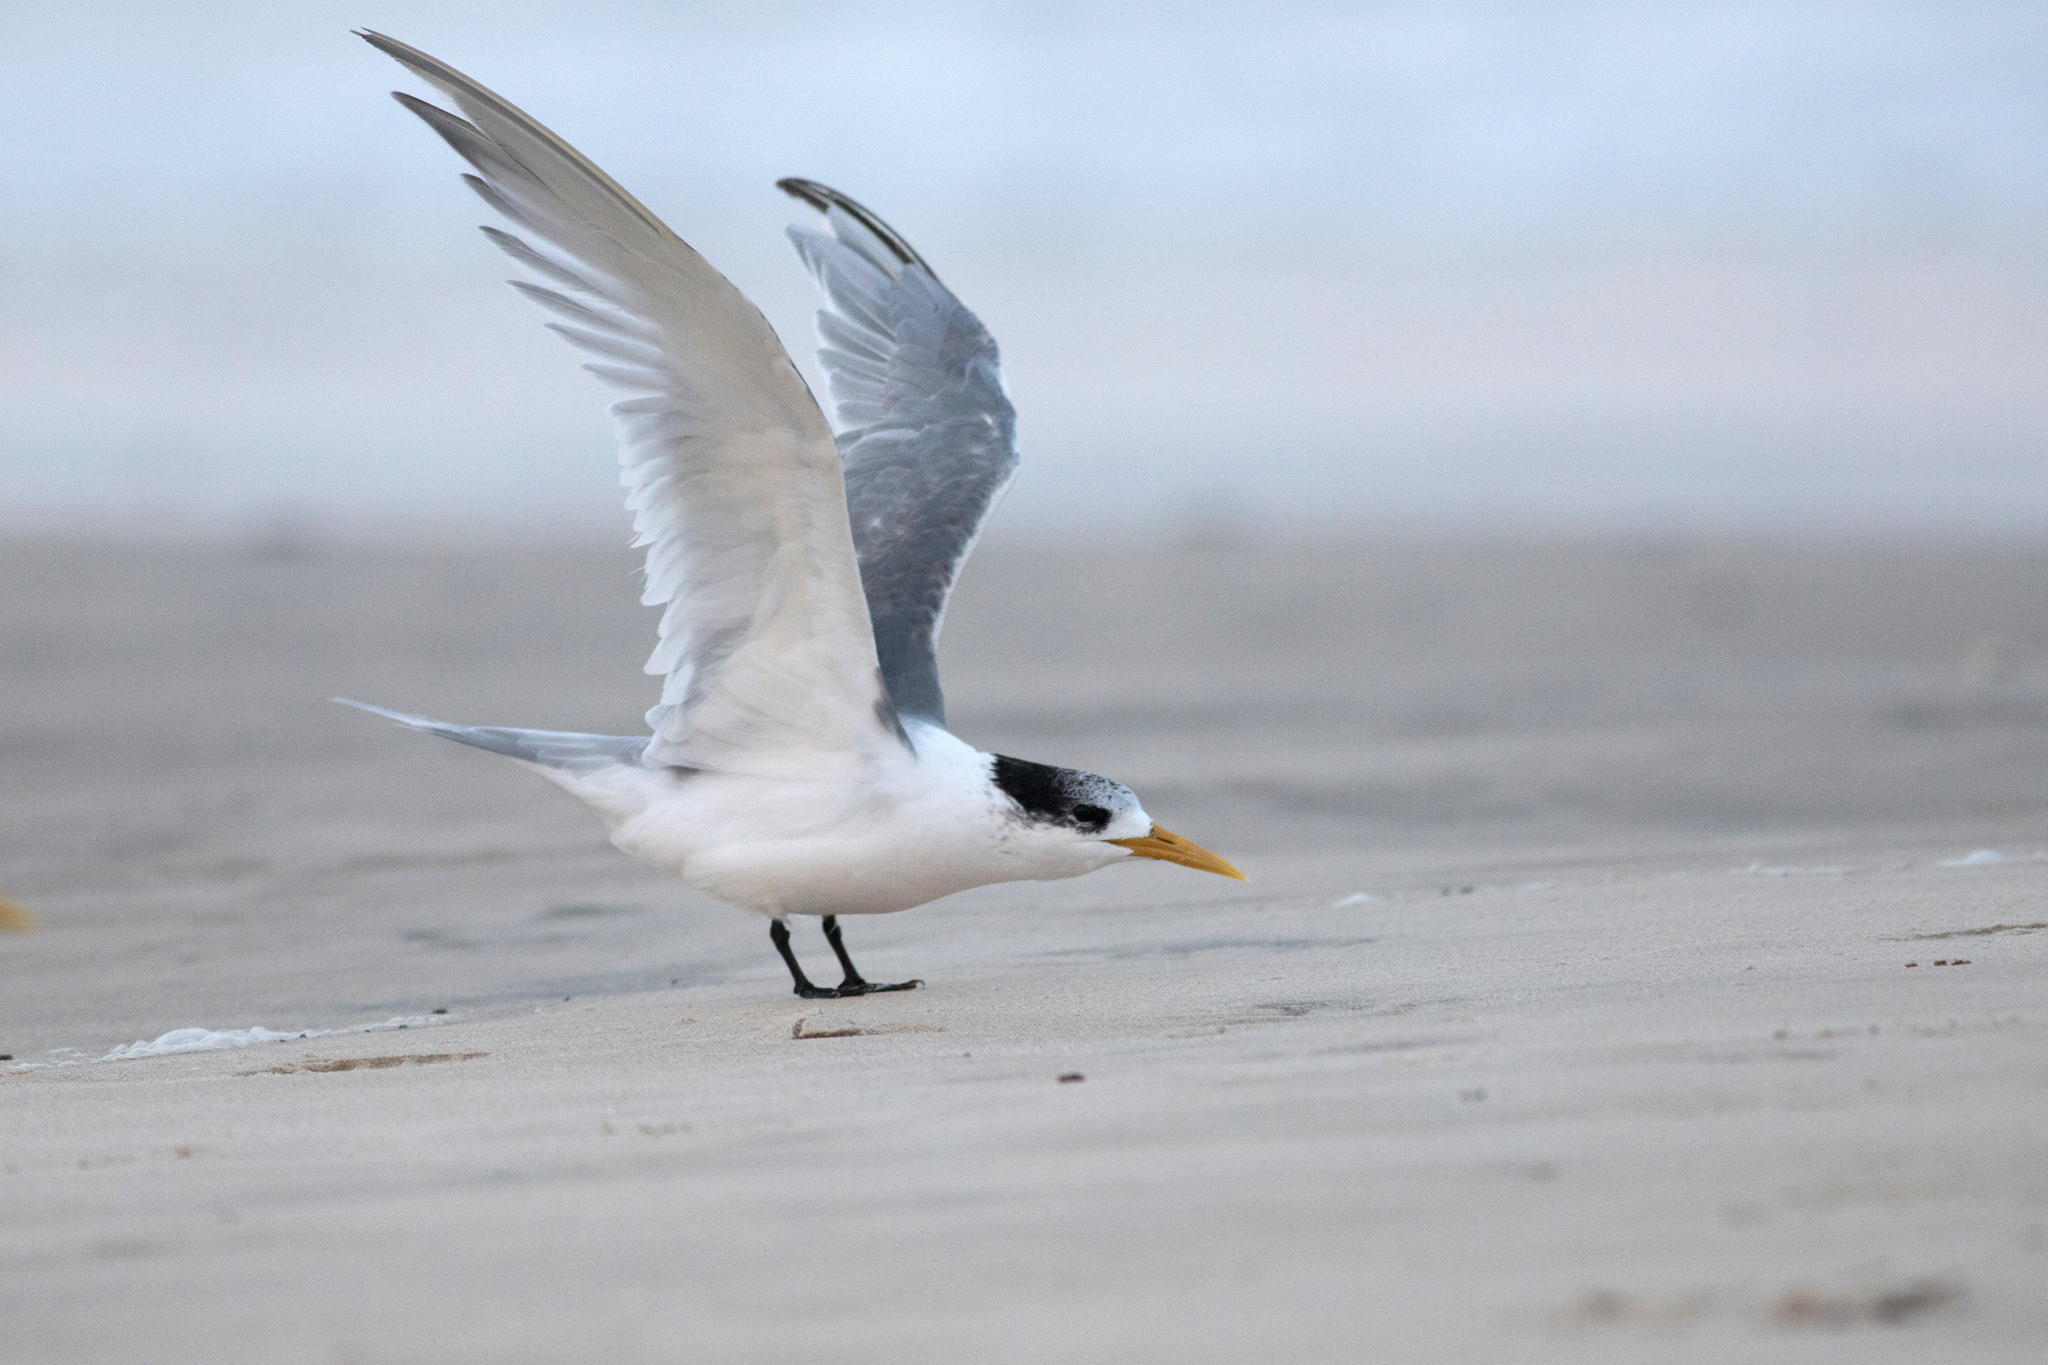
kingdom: Animalia
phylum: Chordata
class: Aves
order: Charadriiformes
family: Laridae
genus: Thalasseus
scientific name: Thalasseus bergii
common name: Greater crested tern
